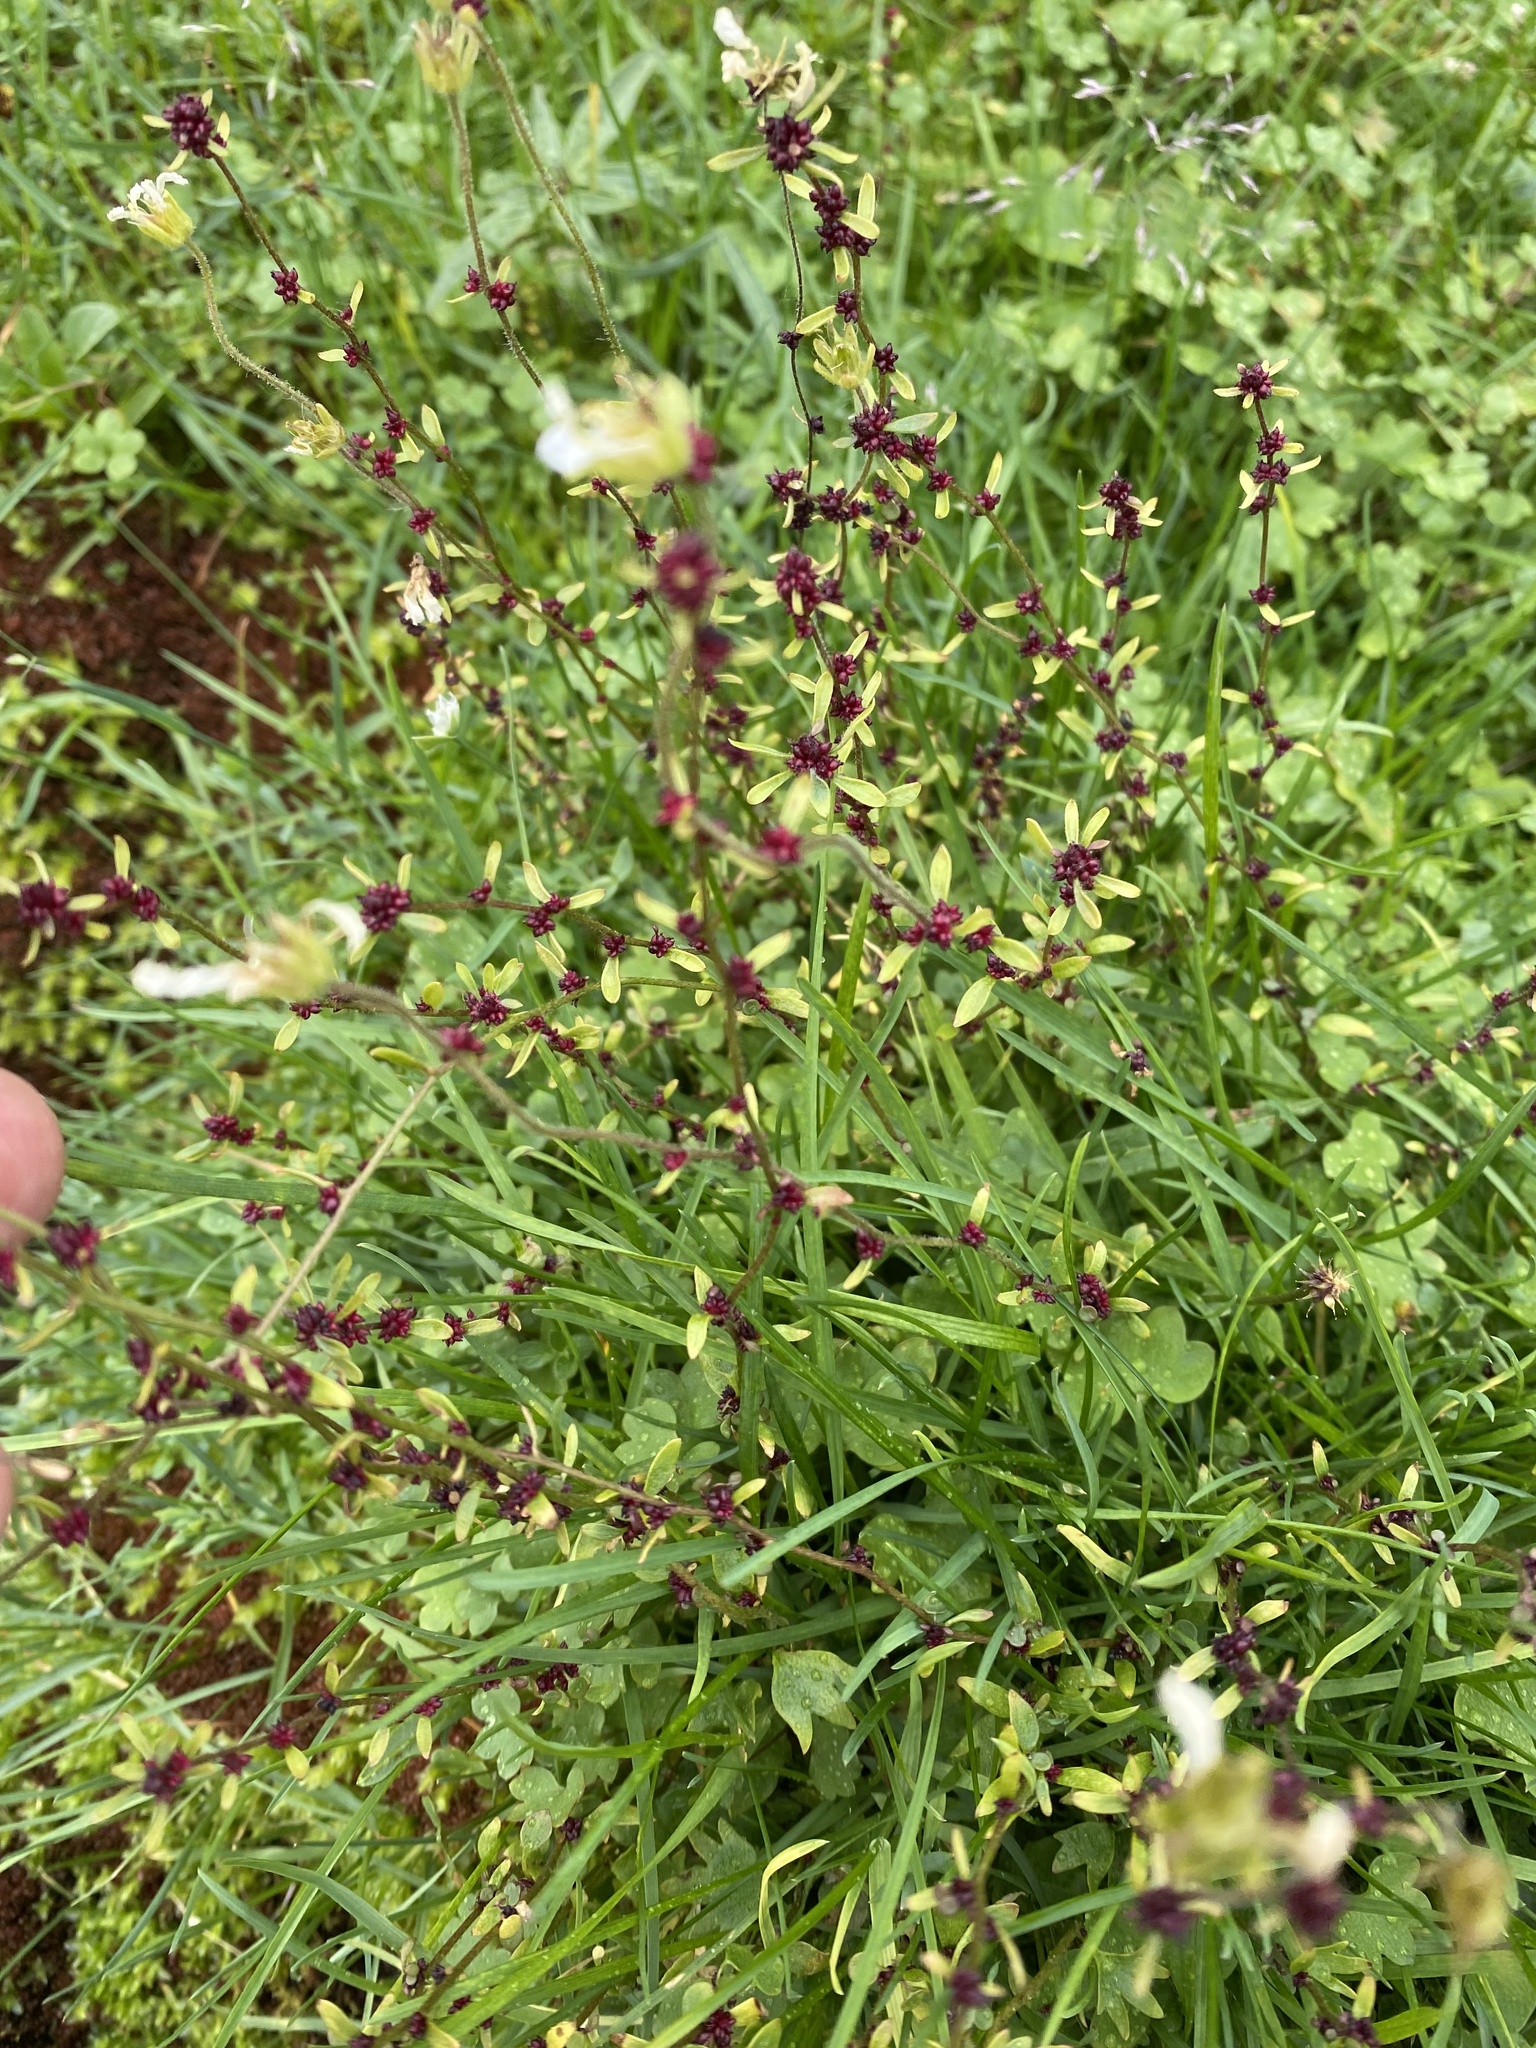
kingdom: Plantae
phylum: Tracheophyta
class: Magnoliopsida
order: Saxifragales
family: Saxifragaceae
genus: Saxifraga
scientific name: Saxifraga cernua
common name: Drooping saxifrage
